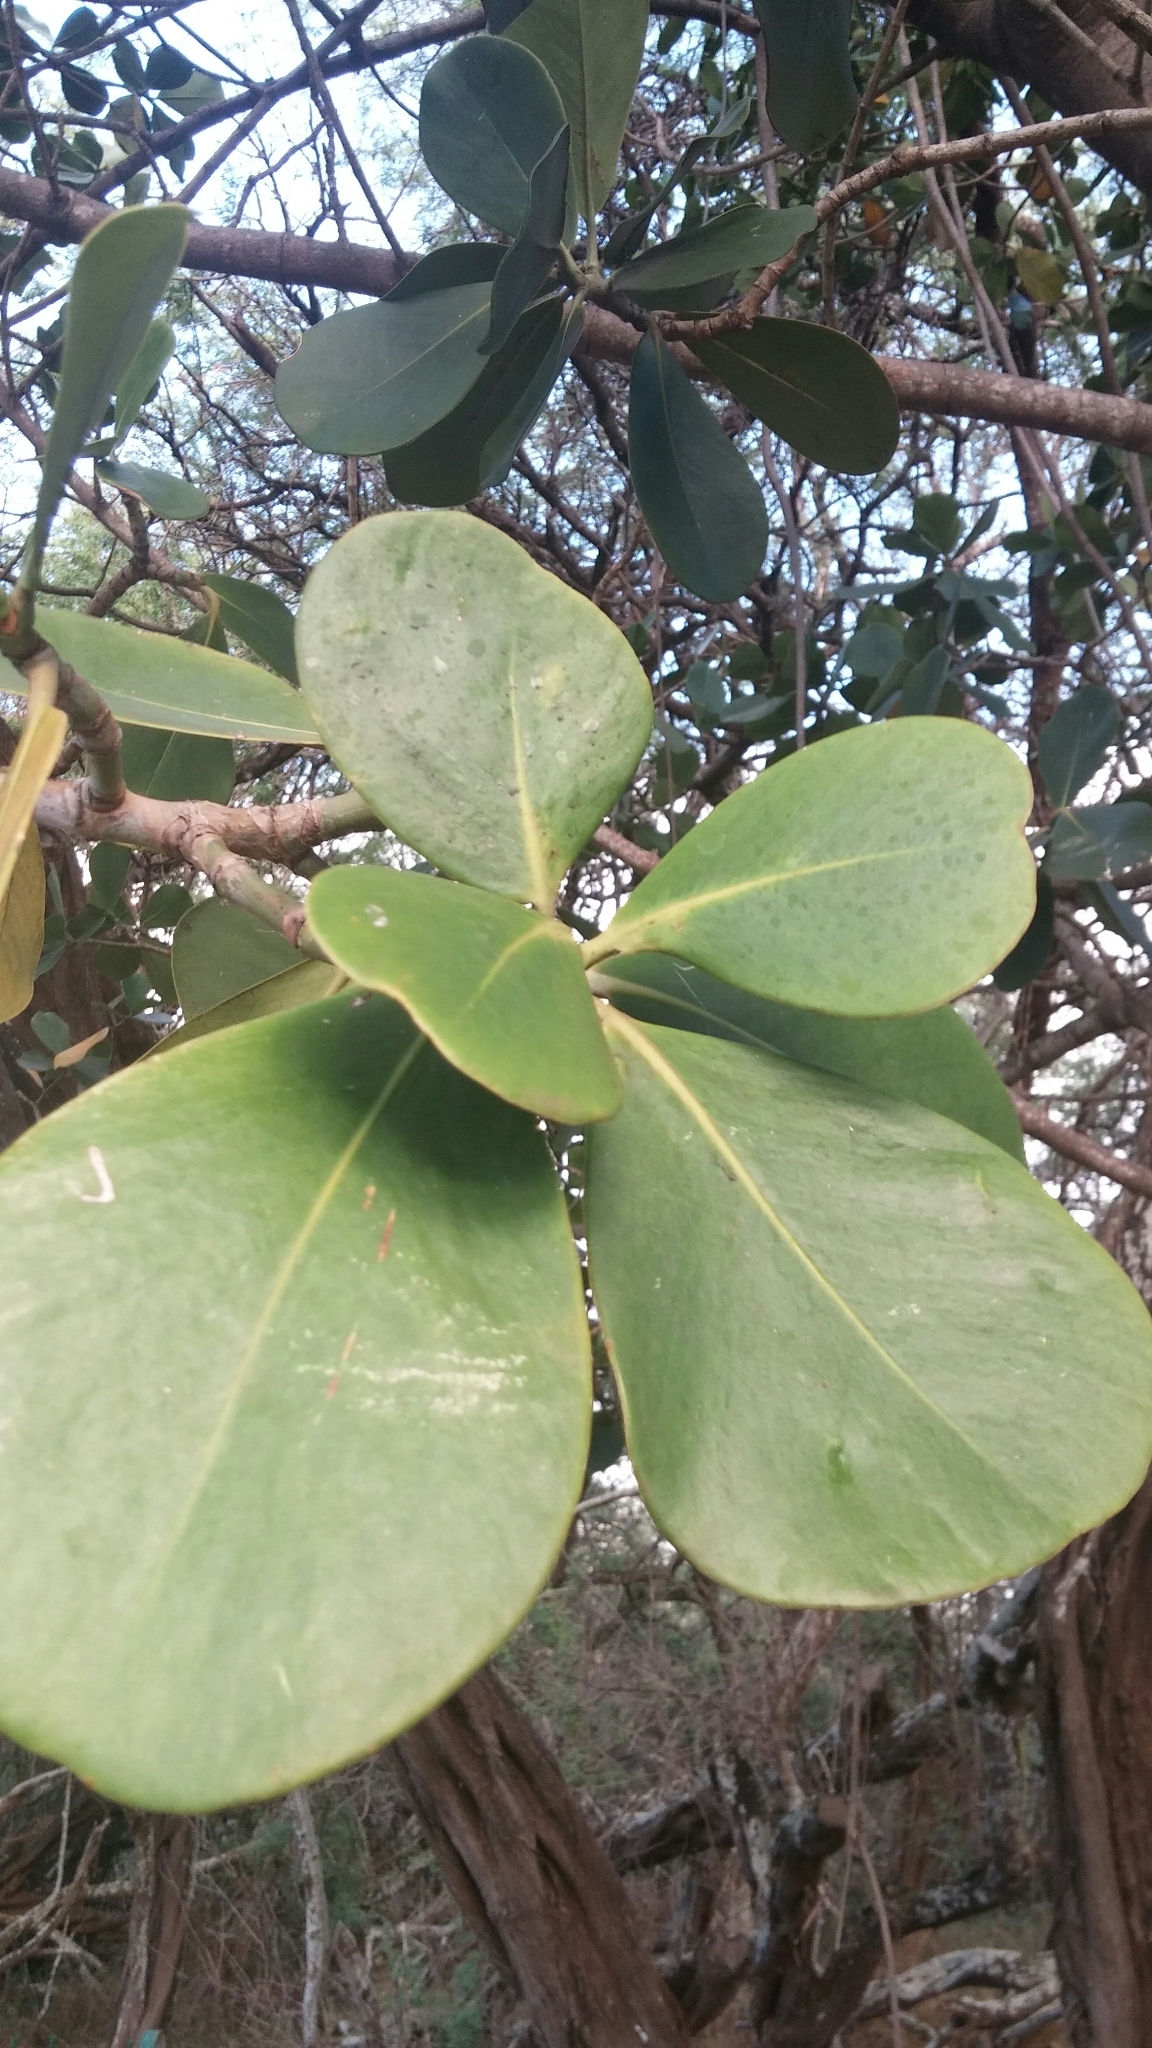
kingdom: Plantae
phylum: Tracheophyta
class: Magnoliopsida
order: Malpighiales
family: Clusiaceae
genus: Clusia
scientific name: Clusia rosea
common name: Scotch attorney
